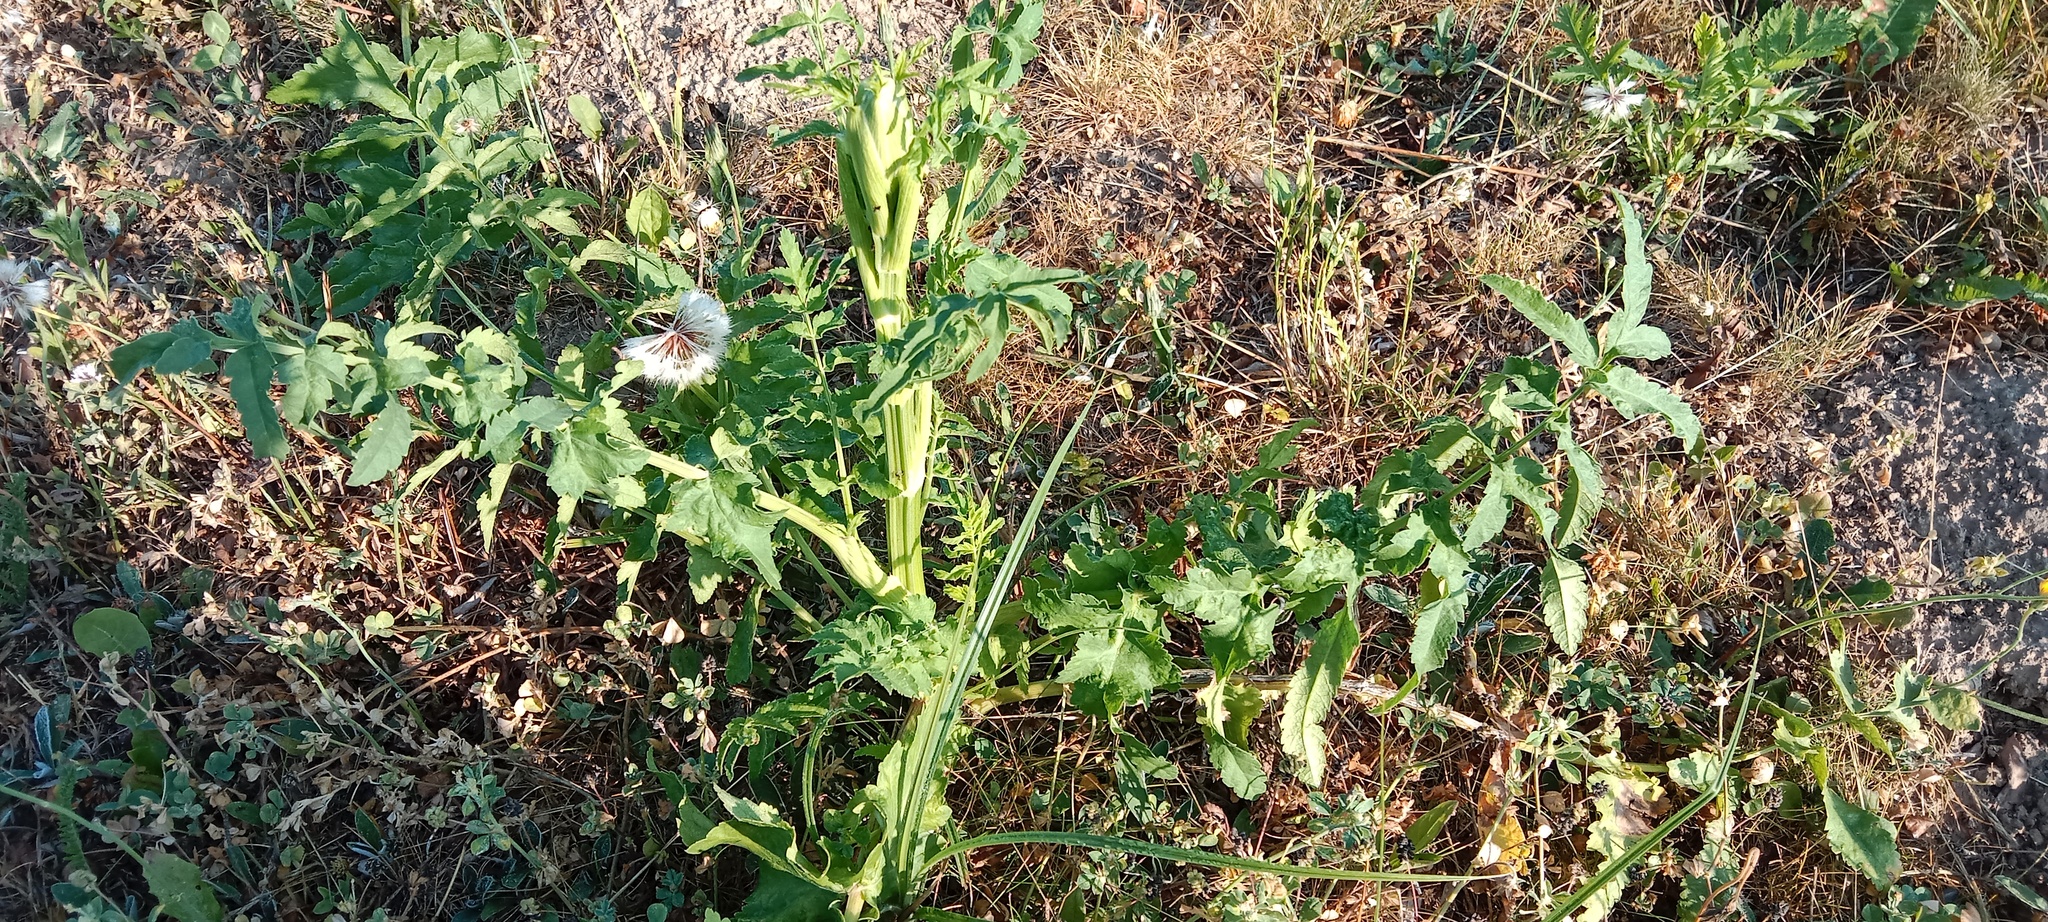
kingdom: Plantae
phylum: Tracheophyta
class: Magnoliopsida
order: Apiales
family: Apiaceae
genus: Pastinaca
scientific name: Pastinaca sativa
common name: Wild parsnip
